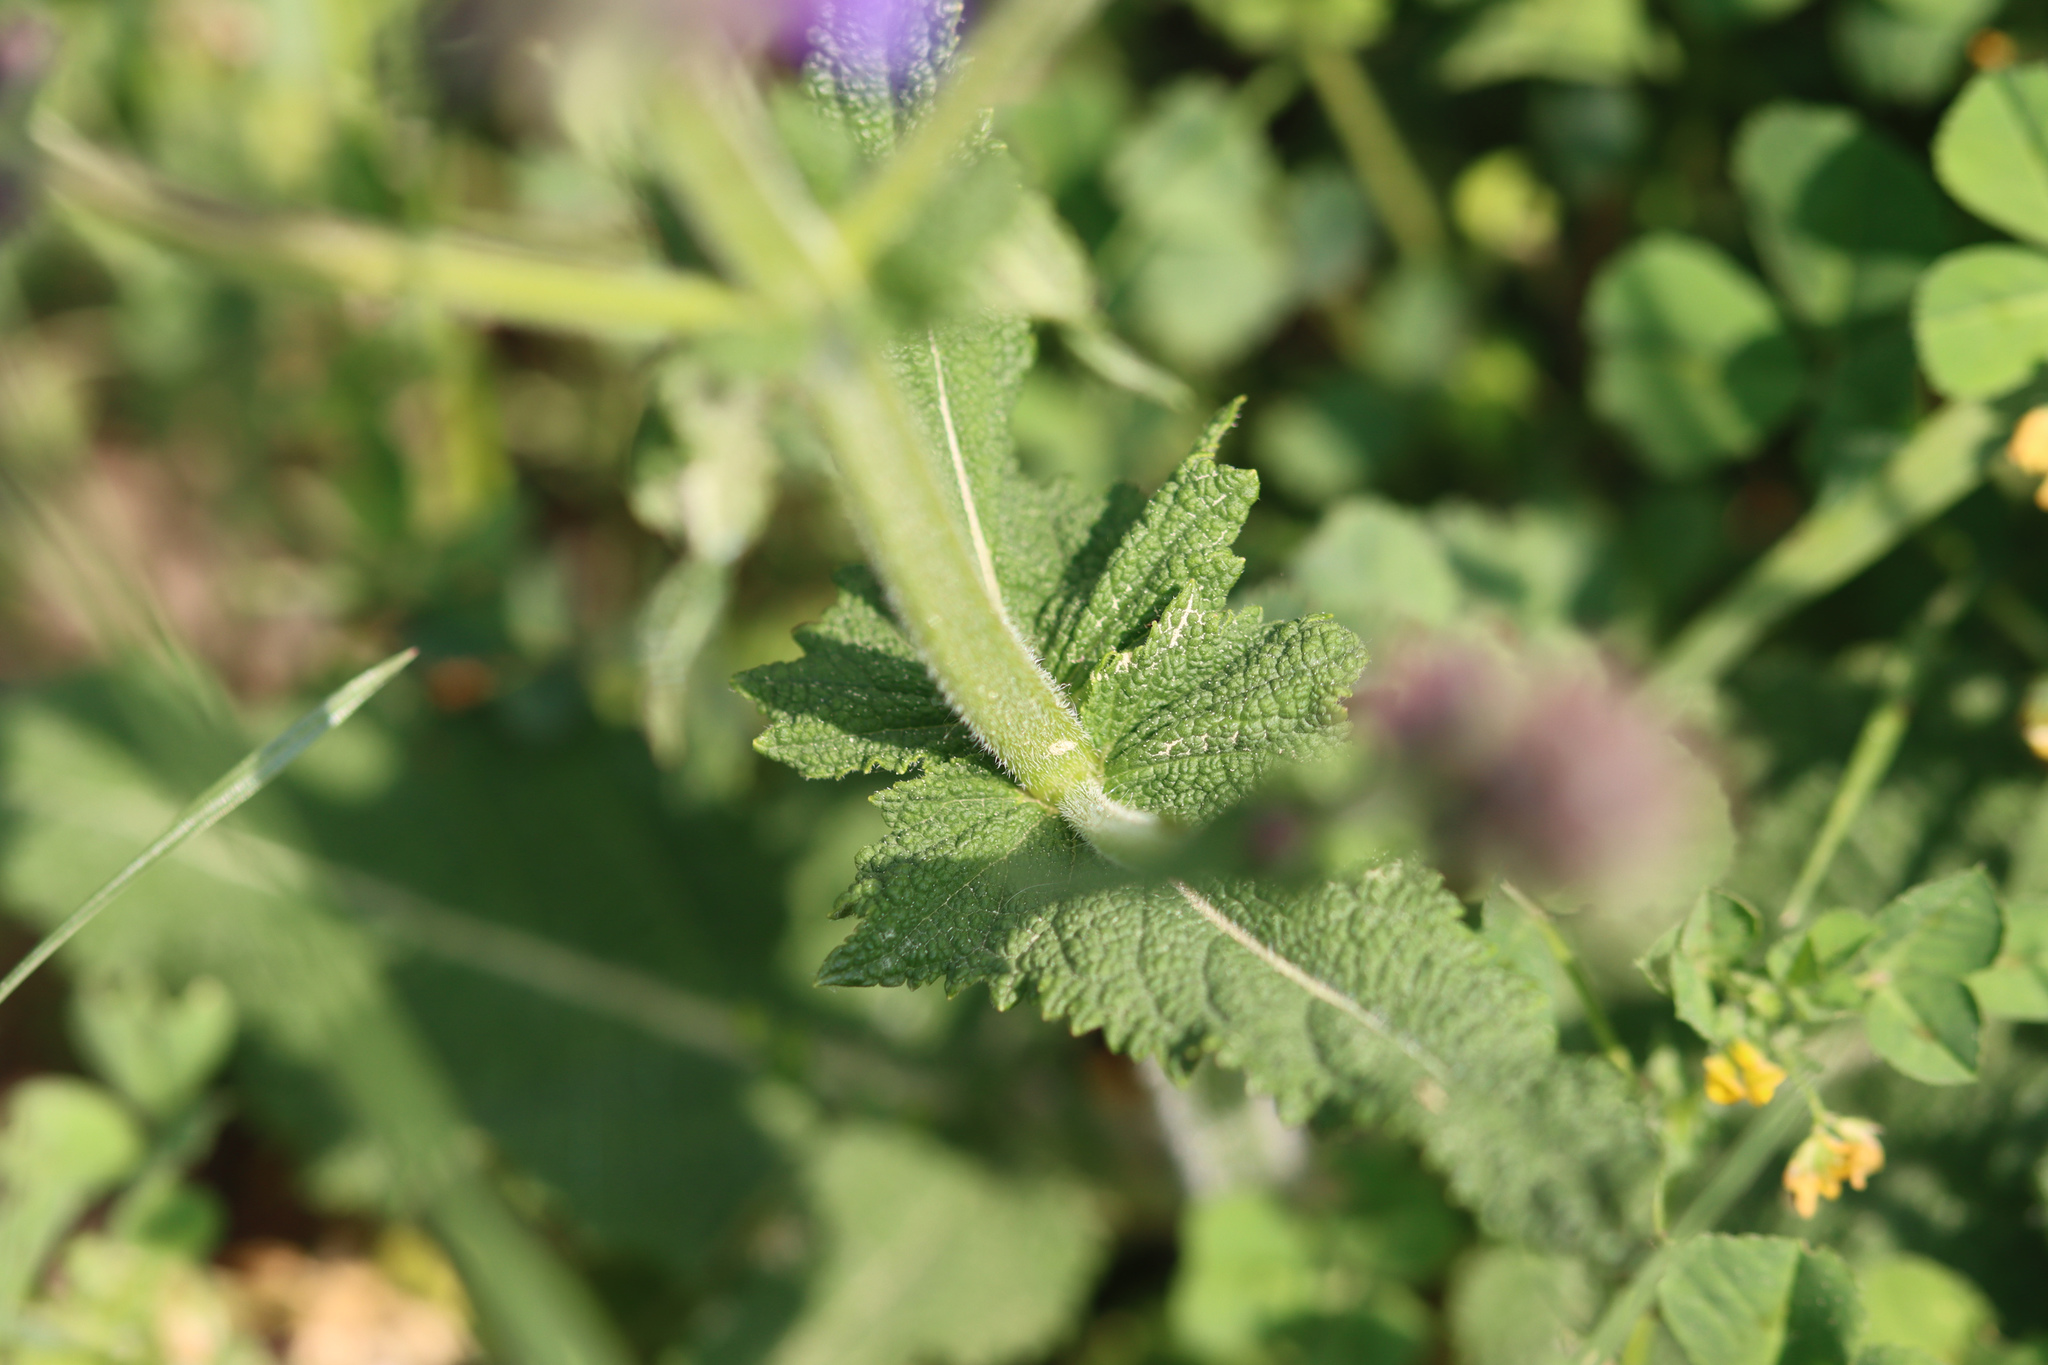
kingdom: Plantae
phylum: Tracheophyta
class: Magnoliopsida
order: Lamiales
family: Lamiaceae
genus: Salvia
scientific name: Salvia pratensis
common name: Meadow sage
